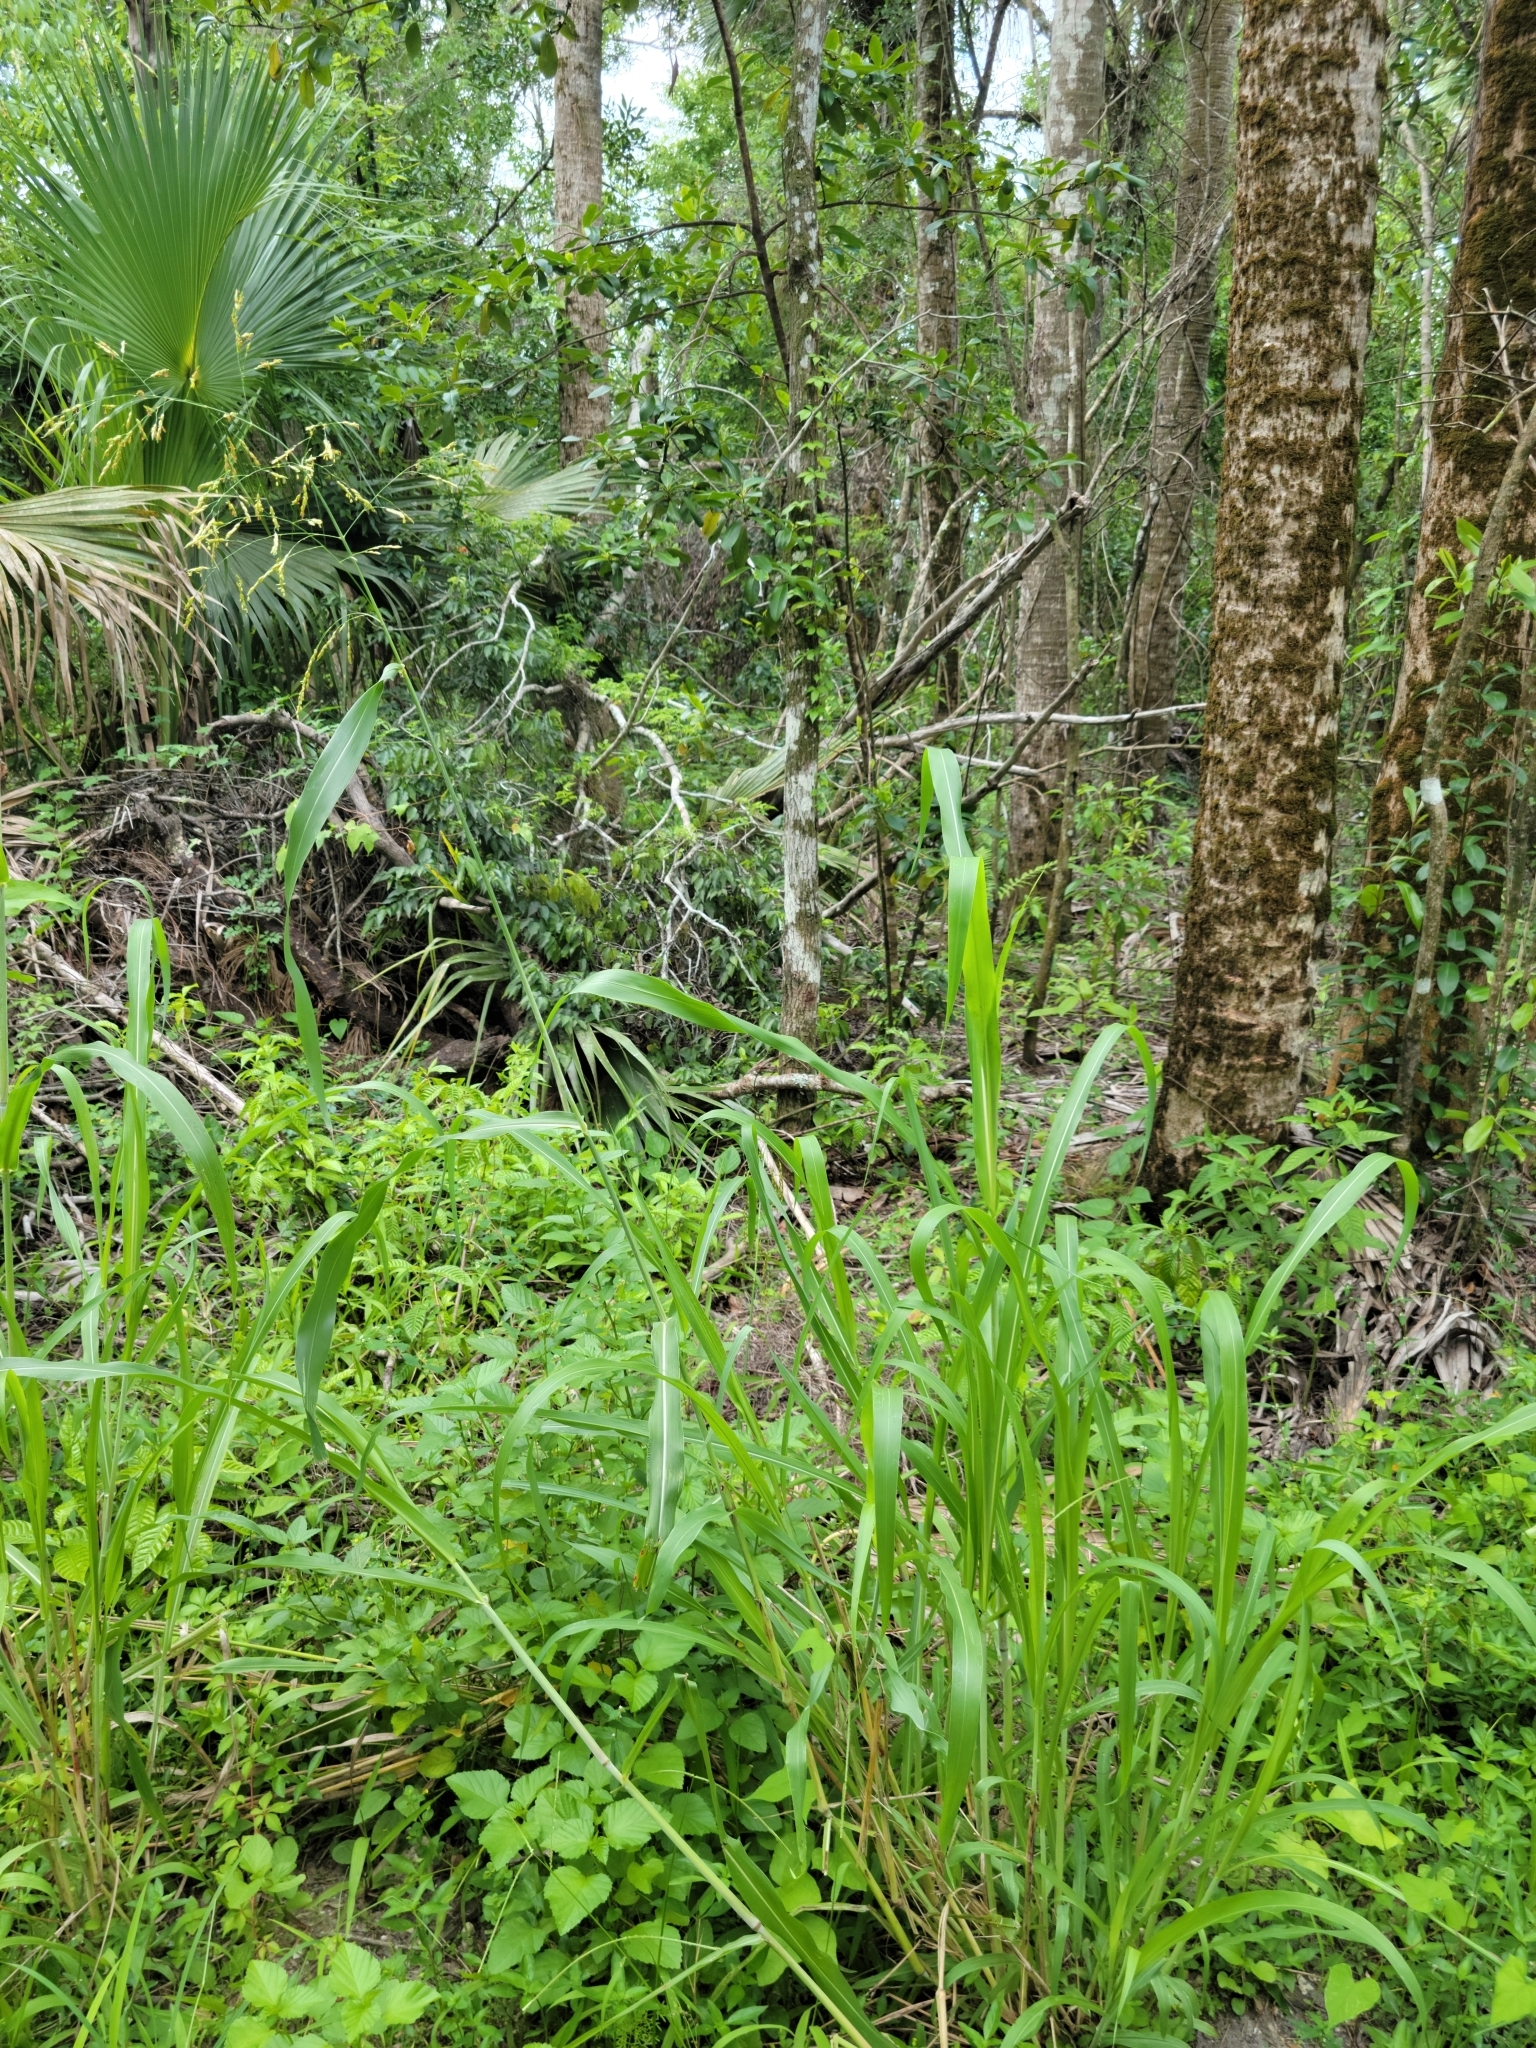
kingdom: Plantae
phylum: Tracheophyta
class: Liliopsida
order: Poales
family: Poaceae
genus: Sorghum
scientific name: Sorghum halepense
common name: Johnson-grass
